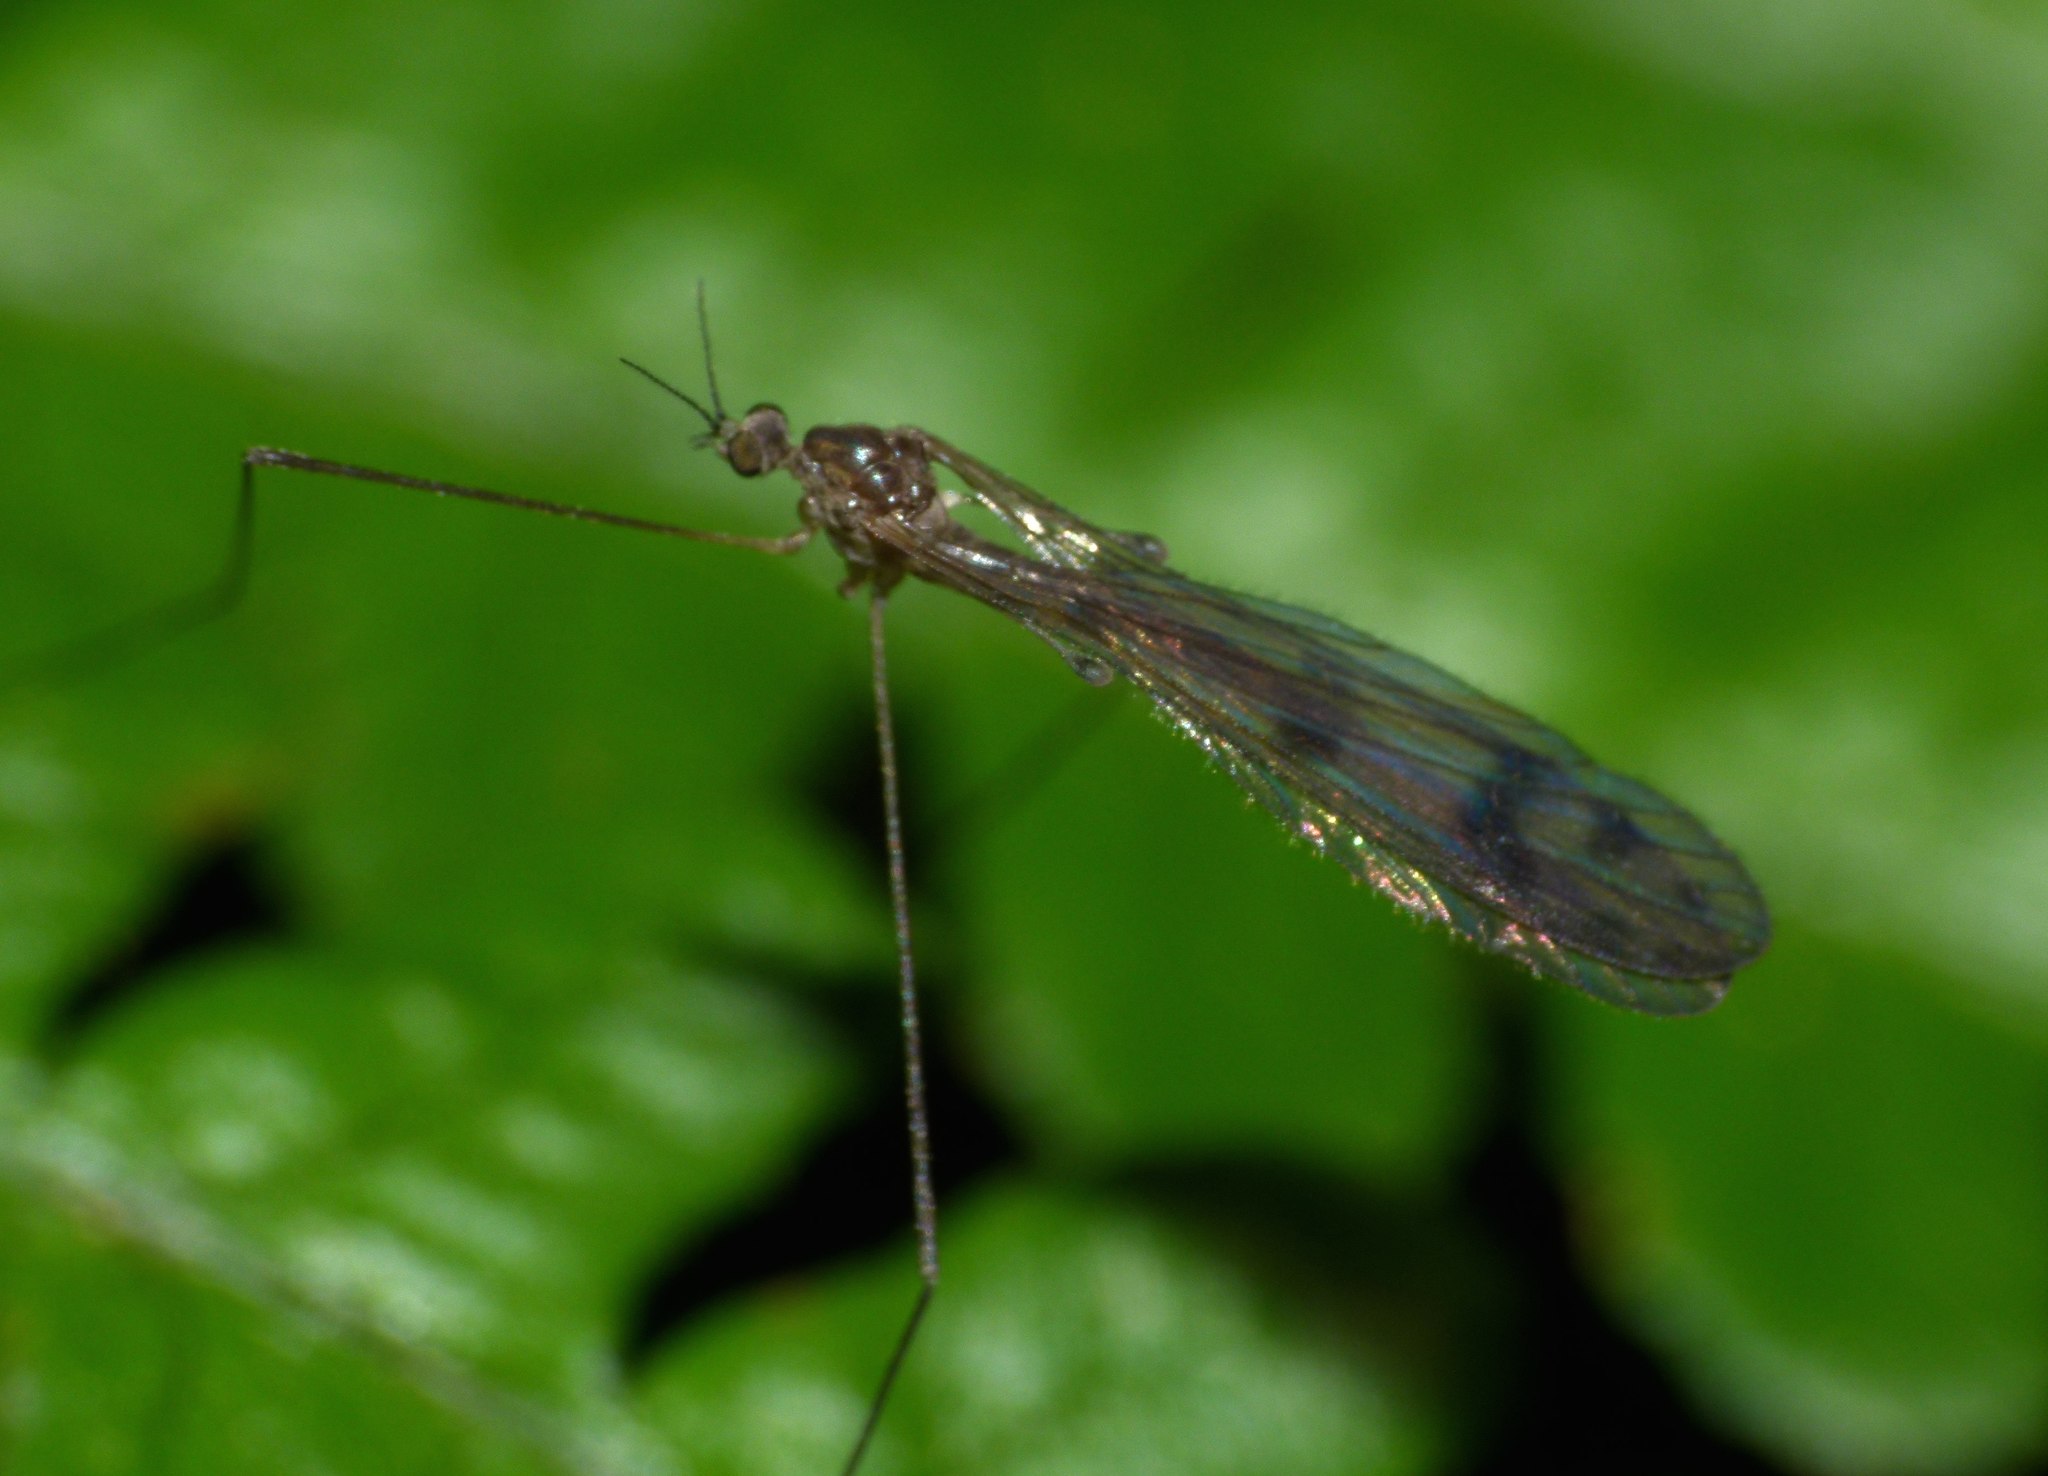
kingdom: Animalia
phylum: Arthropoda
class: Insecta
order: Diptera
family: Limoniidae
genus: Nothophila
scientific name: Nothophila fuscana
